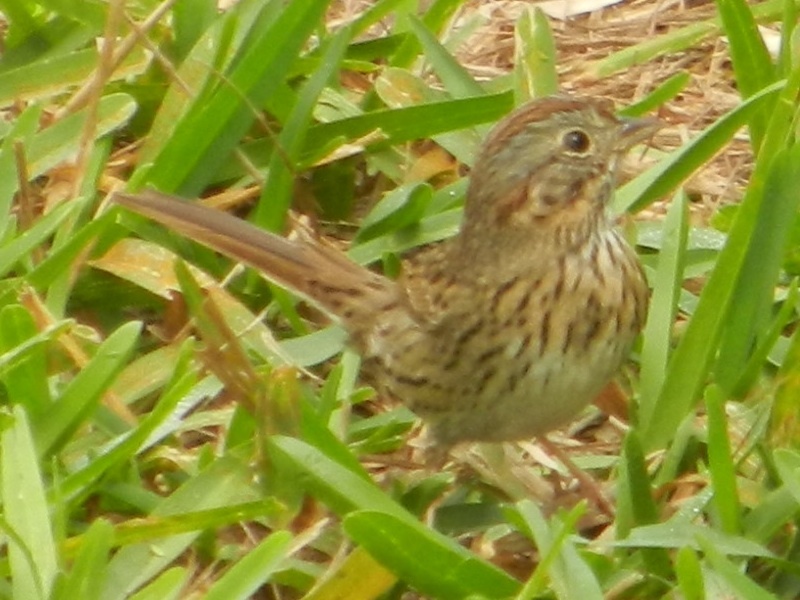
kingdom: Animalia
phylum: Chordata
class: Aves
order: Passeriformes
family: Passerellidae
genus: Melospiza
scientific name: Melospiza lincolnii
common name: Lincoln's sparrow
